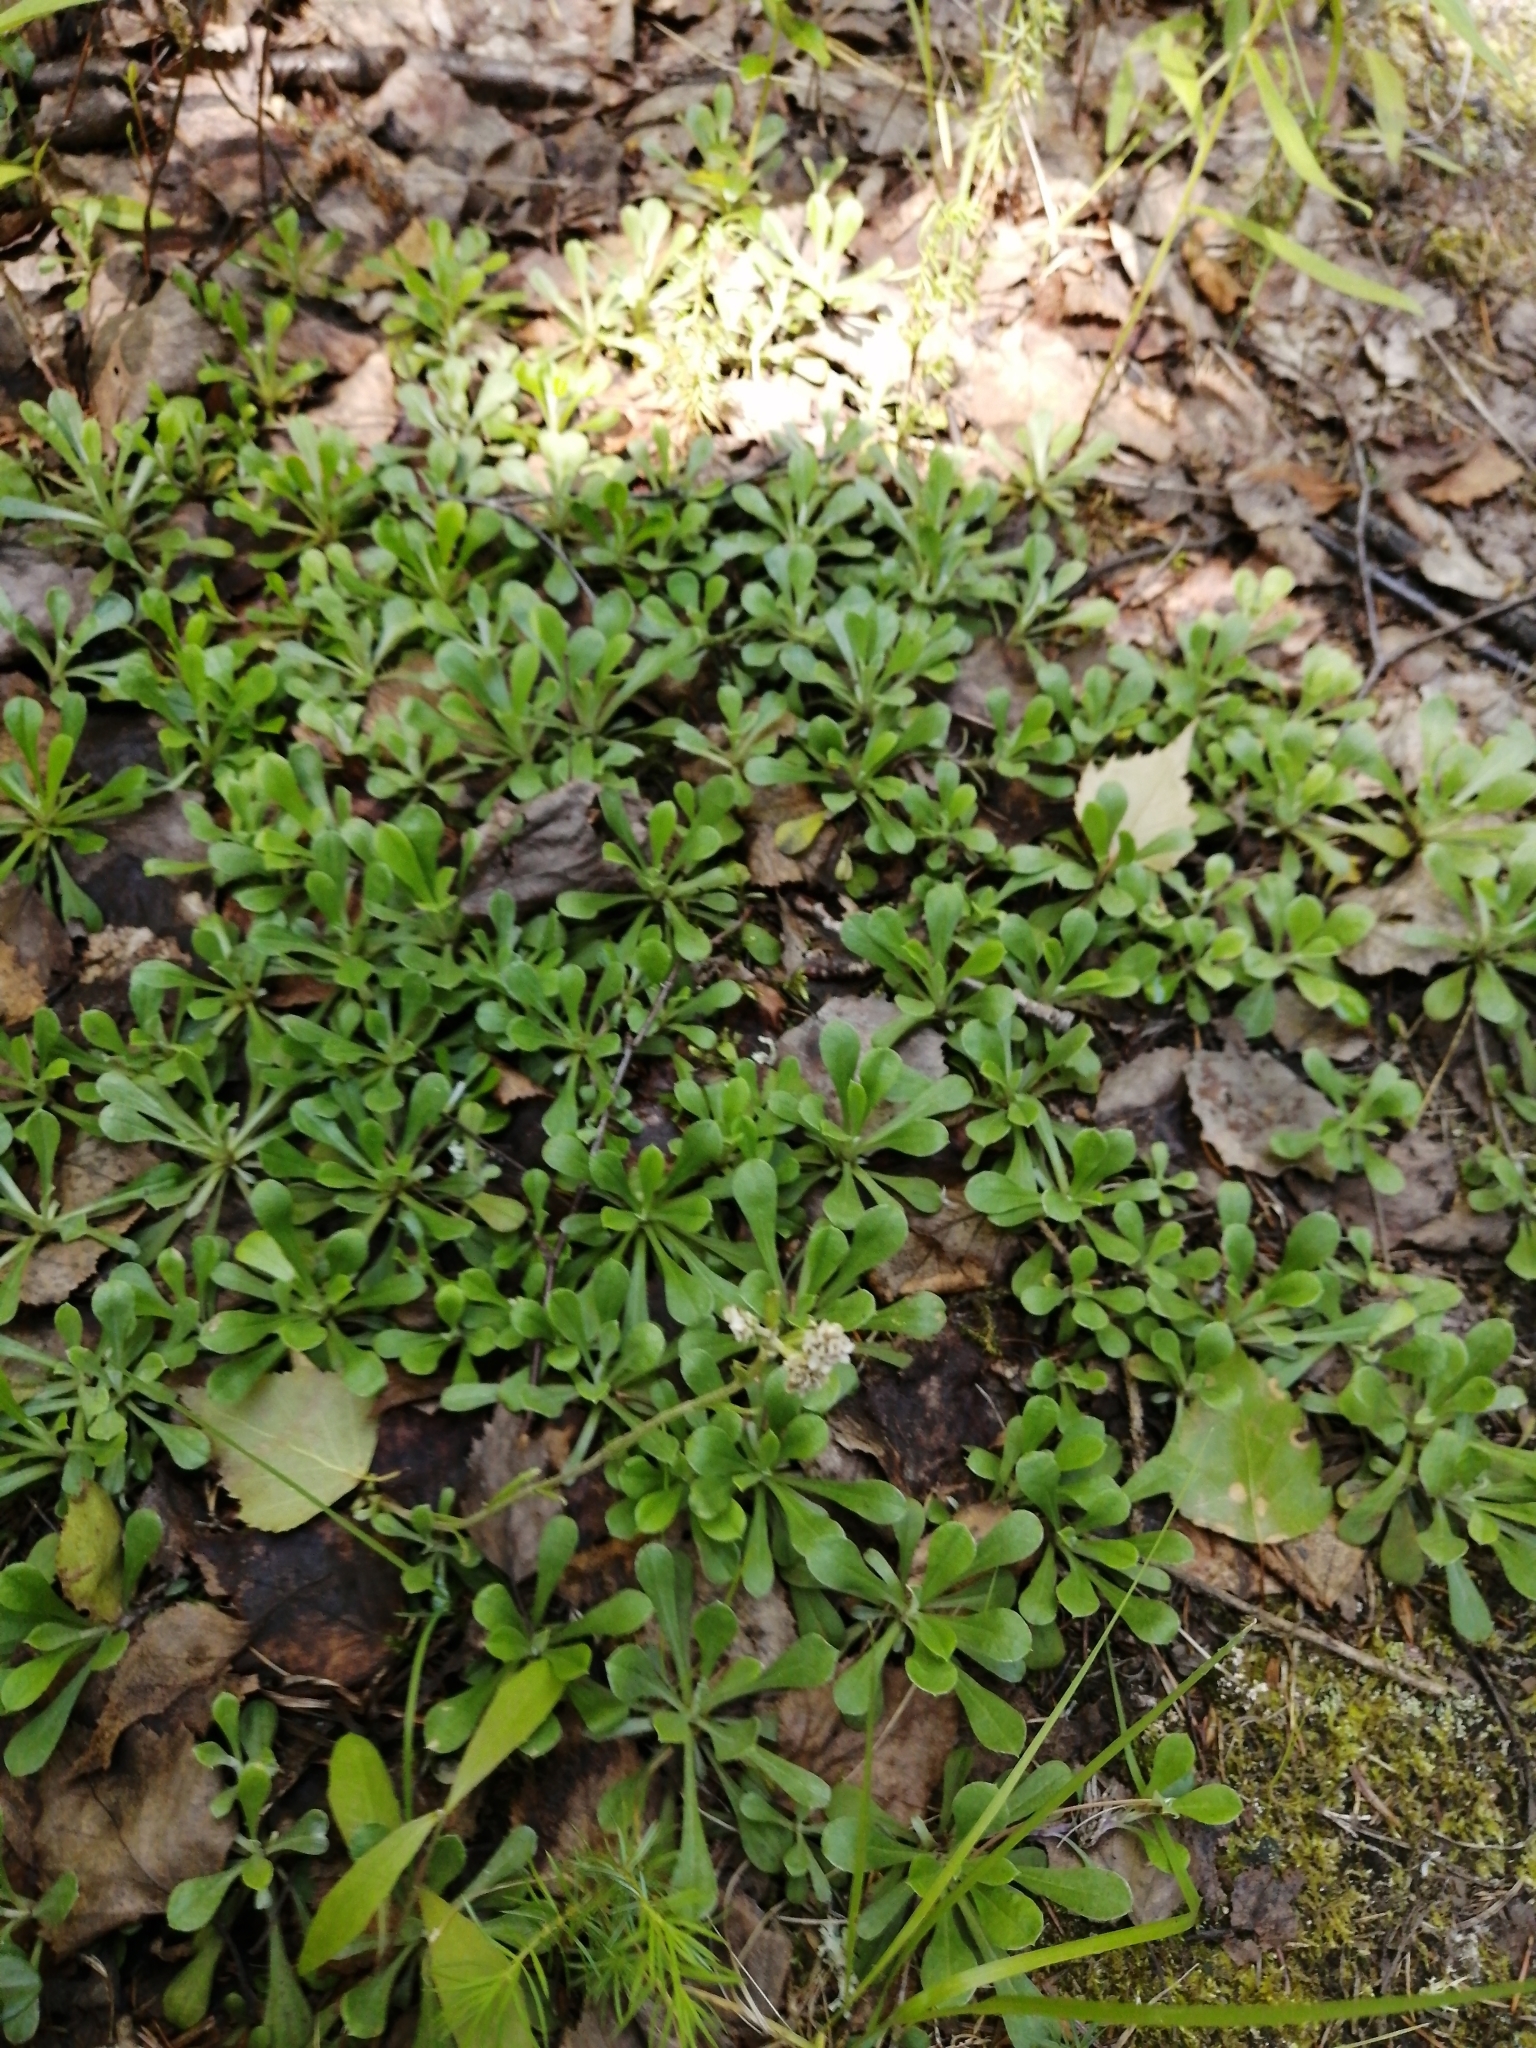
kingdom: Plantae
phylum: Tracheophyta
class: Magnoliopsida
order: Asterales
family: Asteraceae
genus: Antennaria
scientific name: Antennaria dioica
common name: Mountain everlasting
